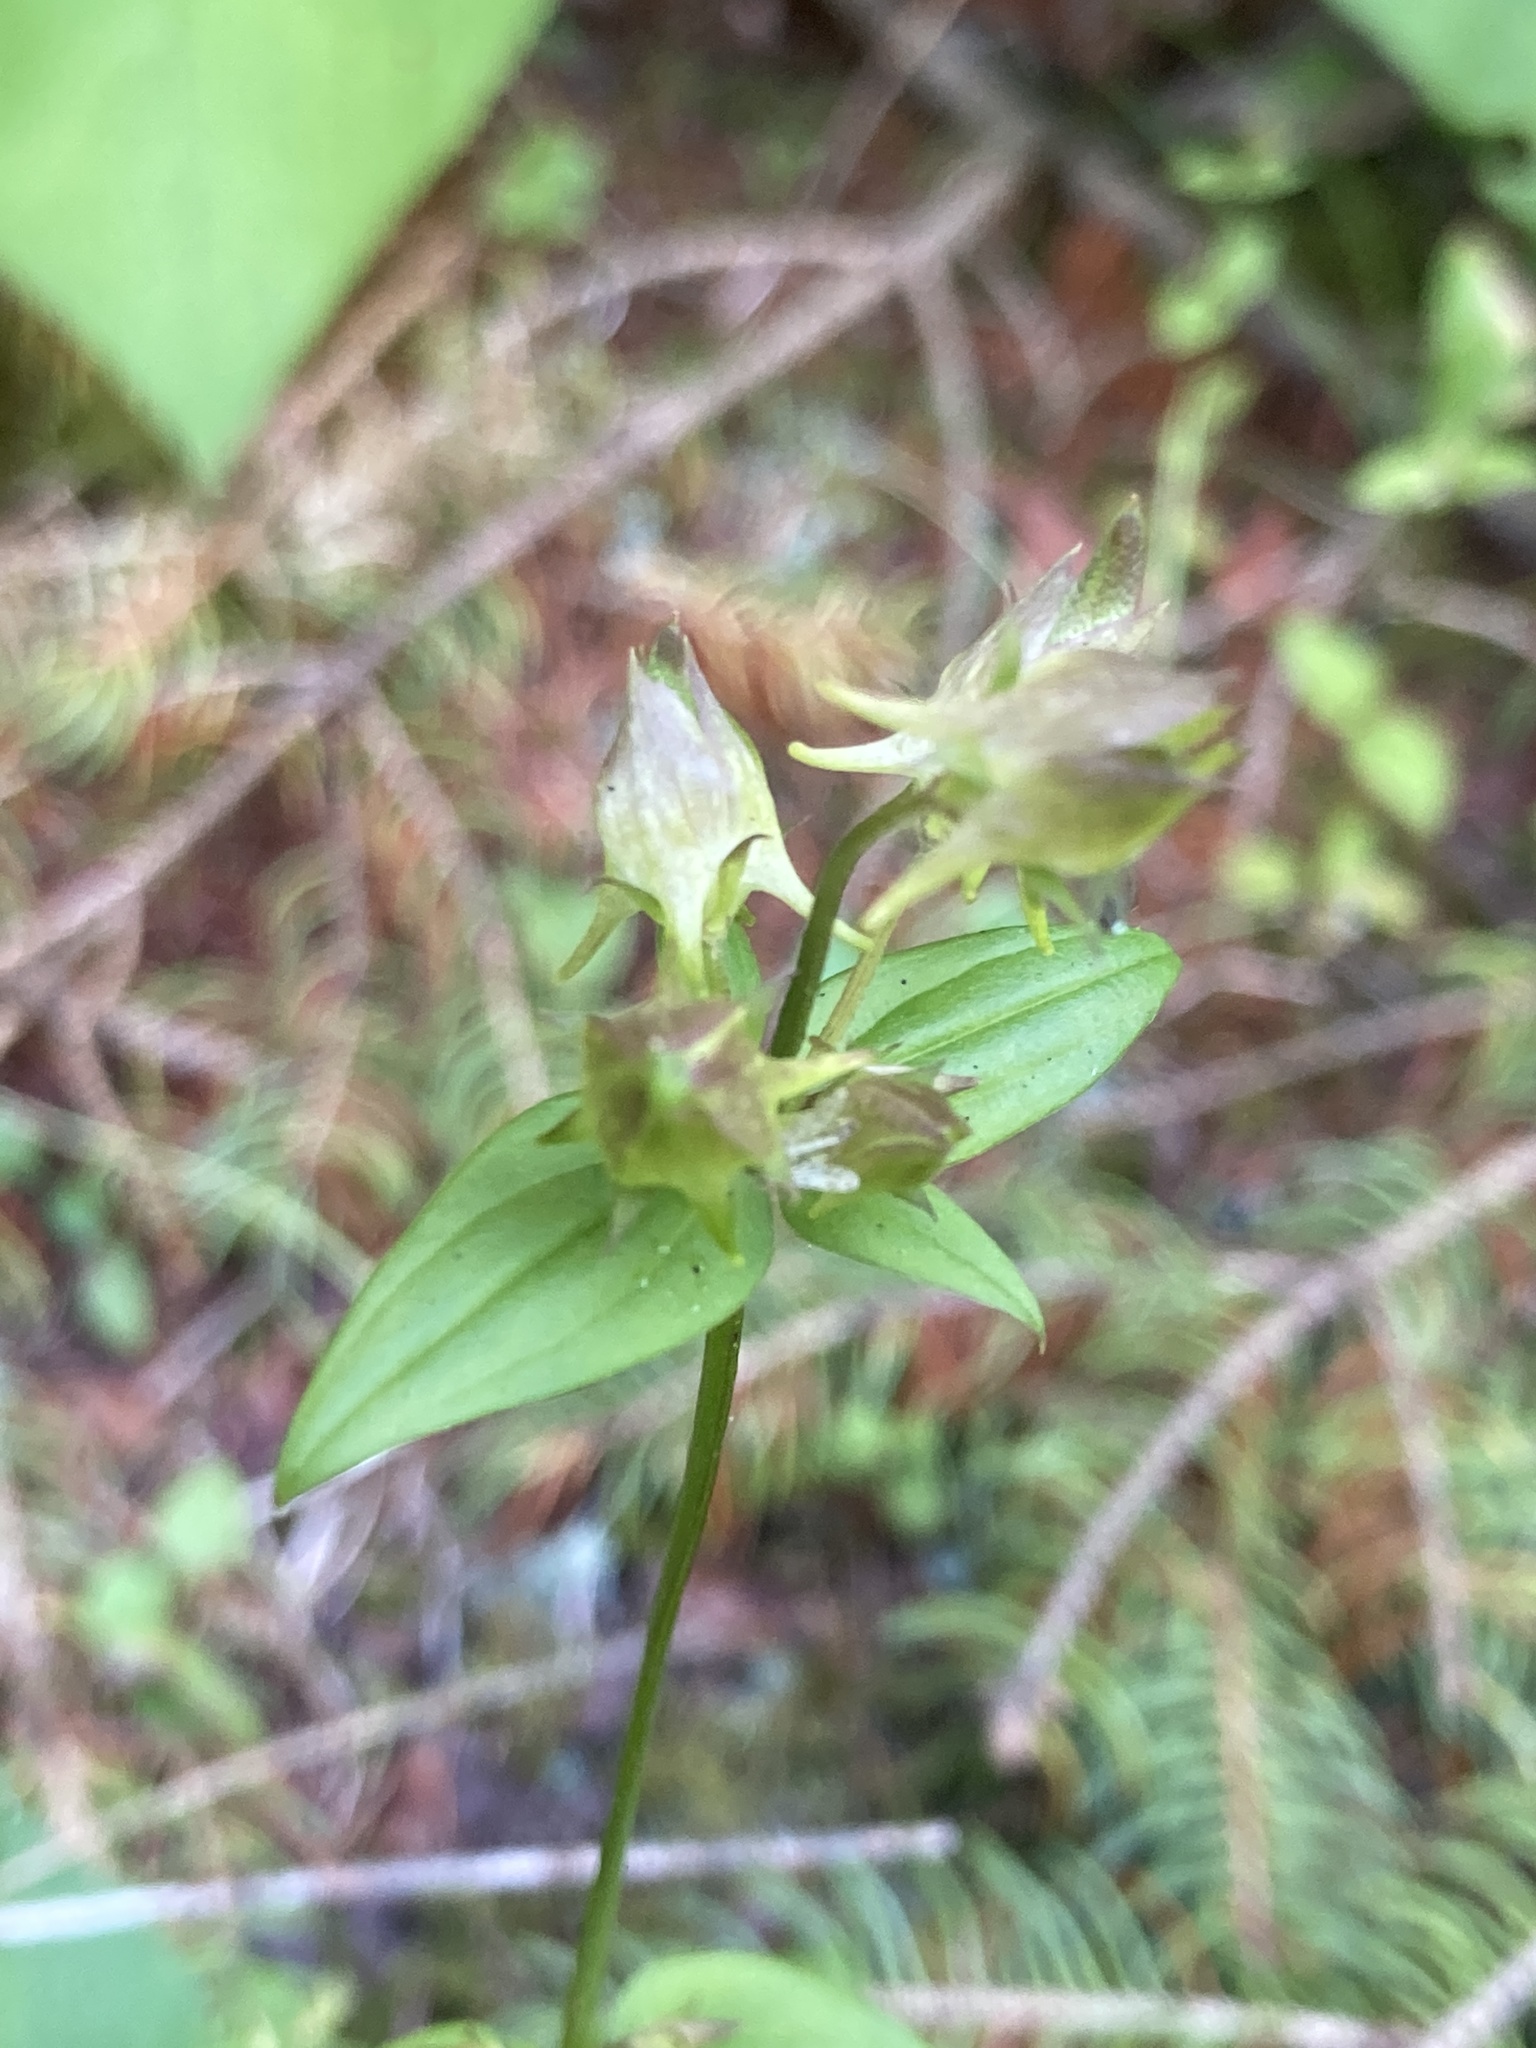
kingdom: Plantae
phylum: Tracheophyta
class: Magnoliopsida
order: Gentianales
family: Gentianaceae
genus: Halenia
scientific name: Halenia deflexa
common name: American spurred gentian
